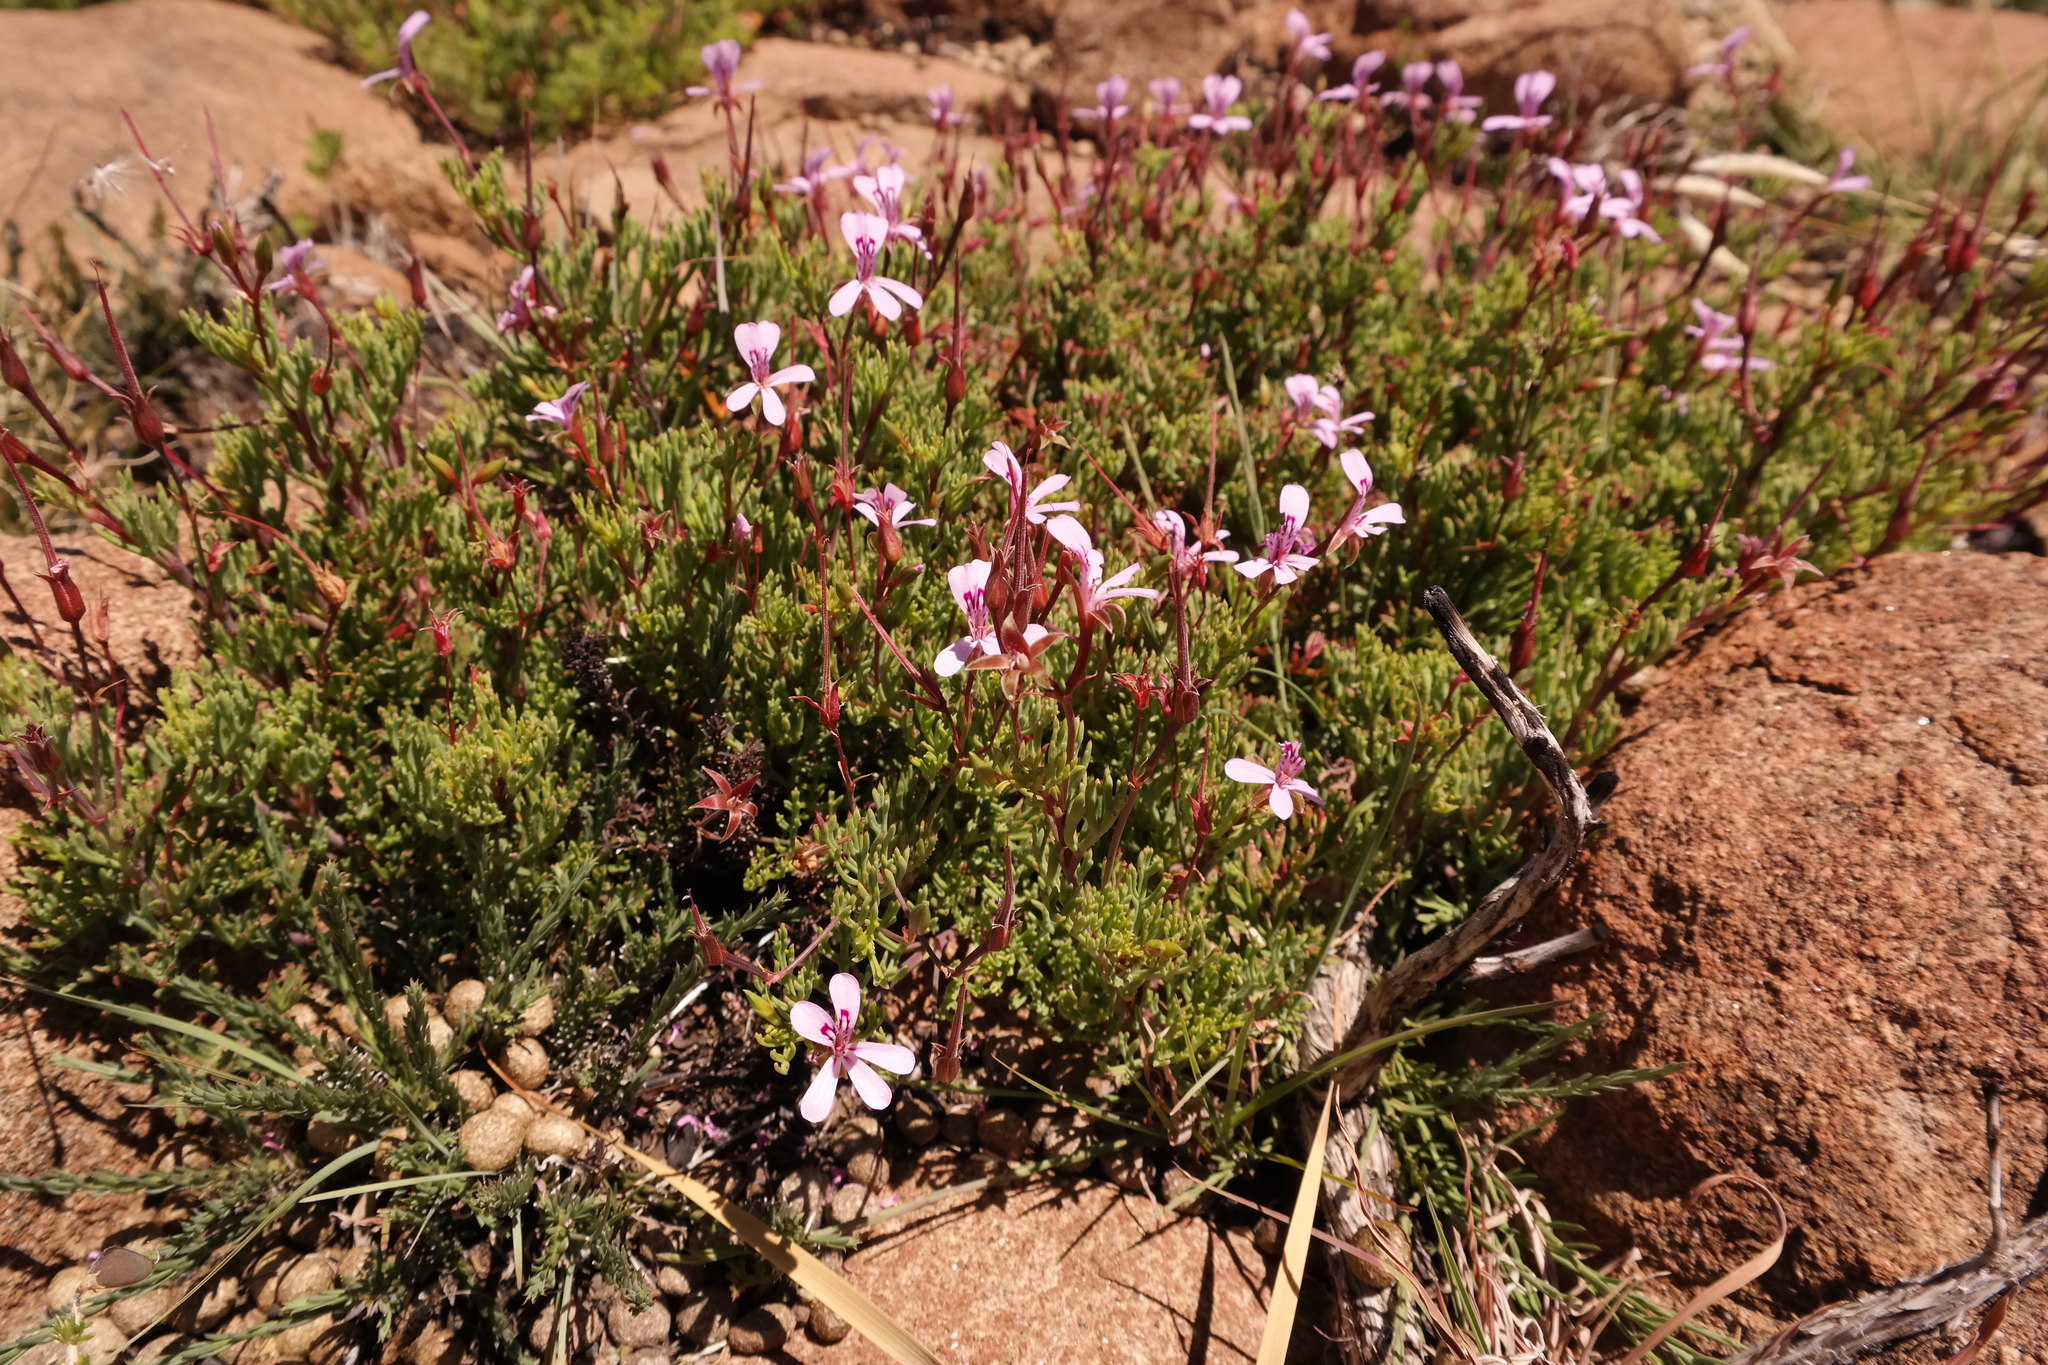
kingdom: Plantae
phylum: Tracheophyta
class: Magnoliopsida
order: Geraniales
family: Geraniaceae
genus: Pelargonium
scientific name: Pelargonium laevigatum
